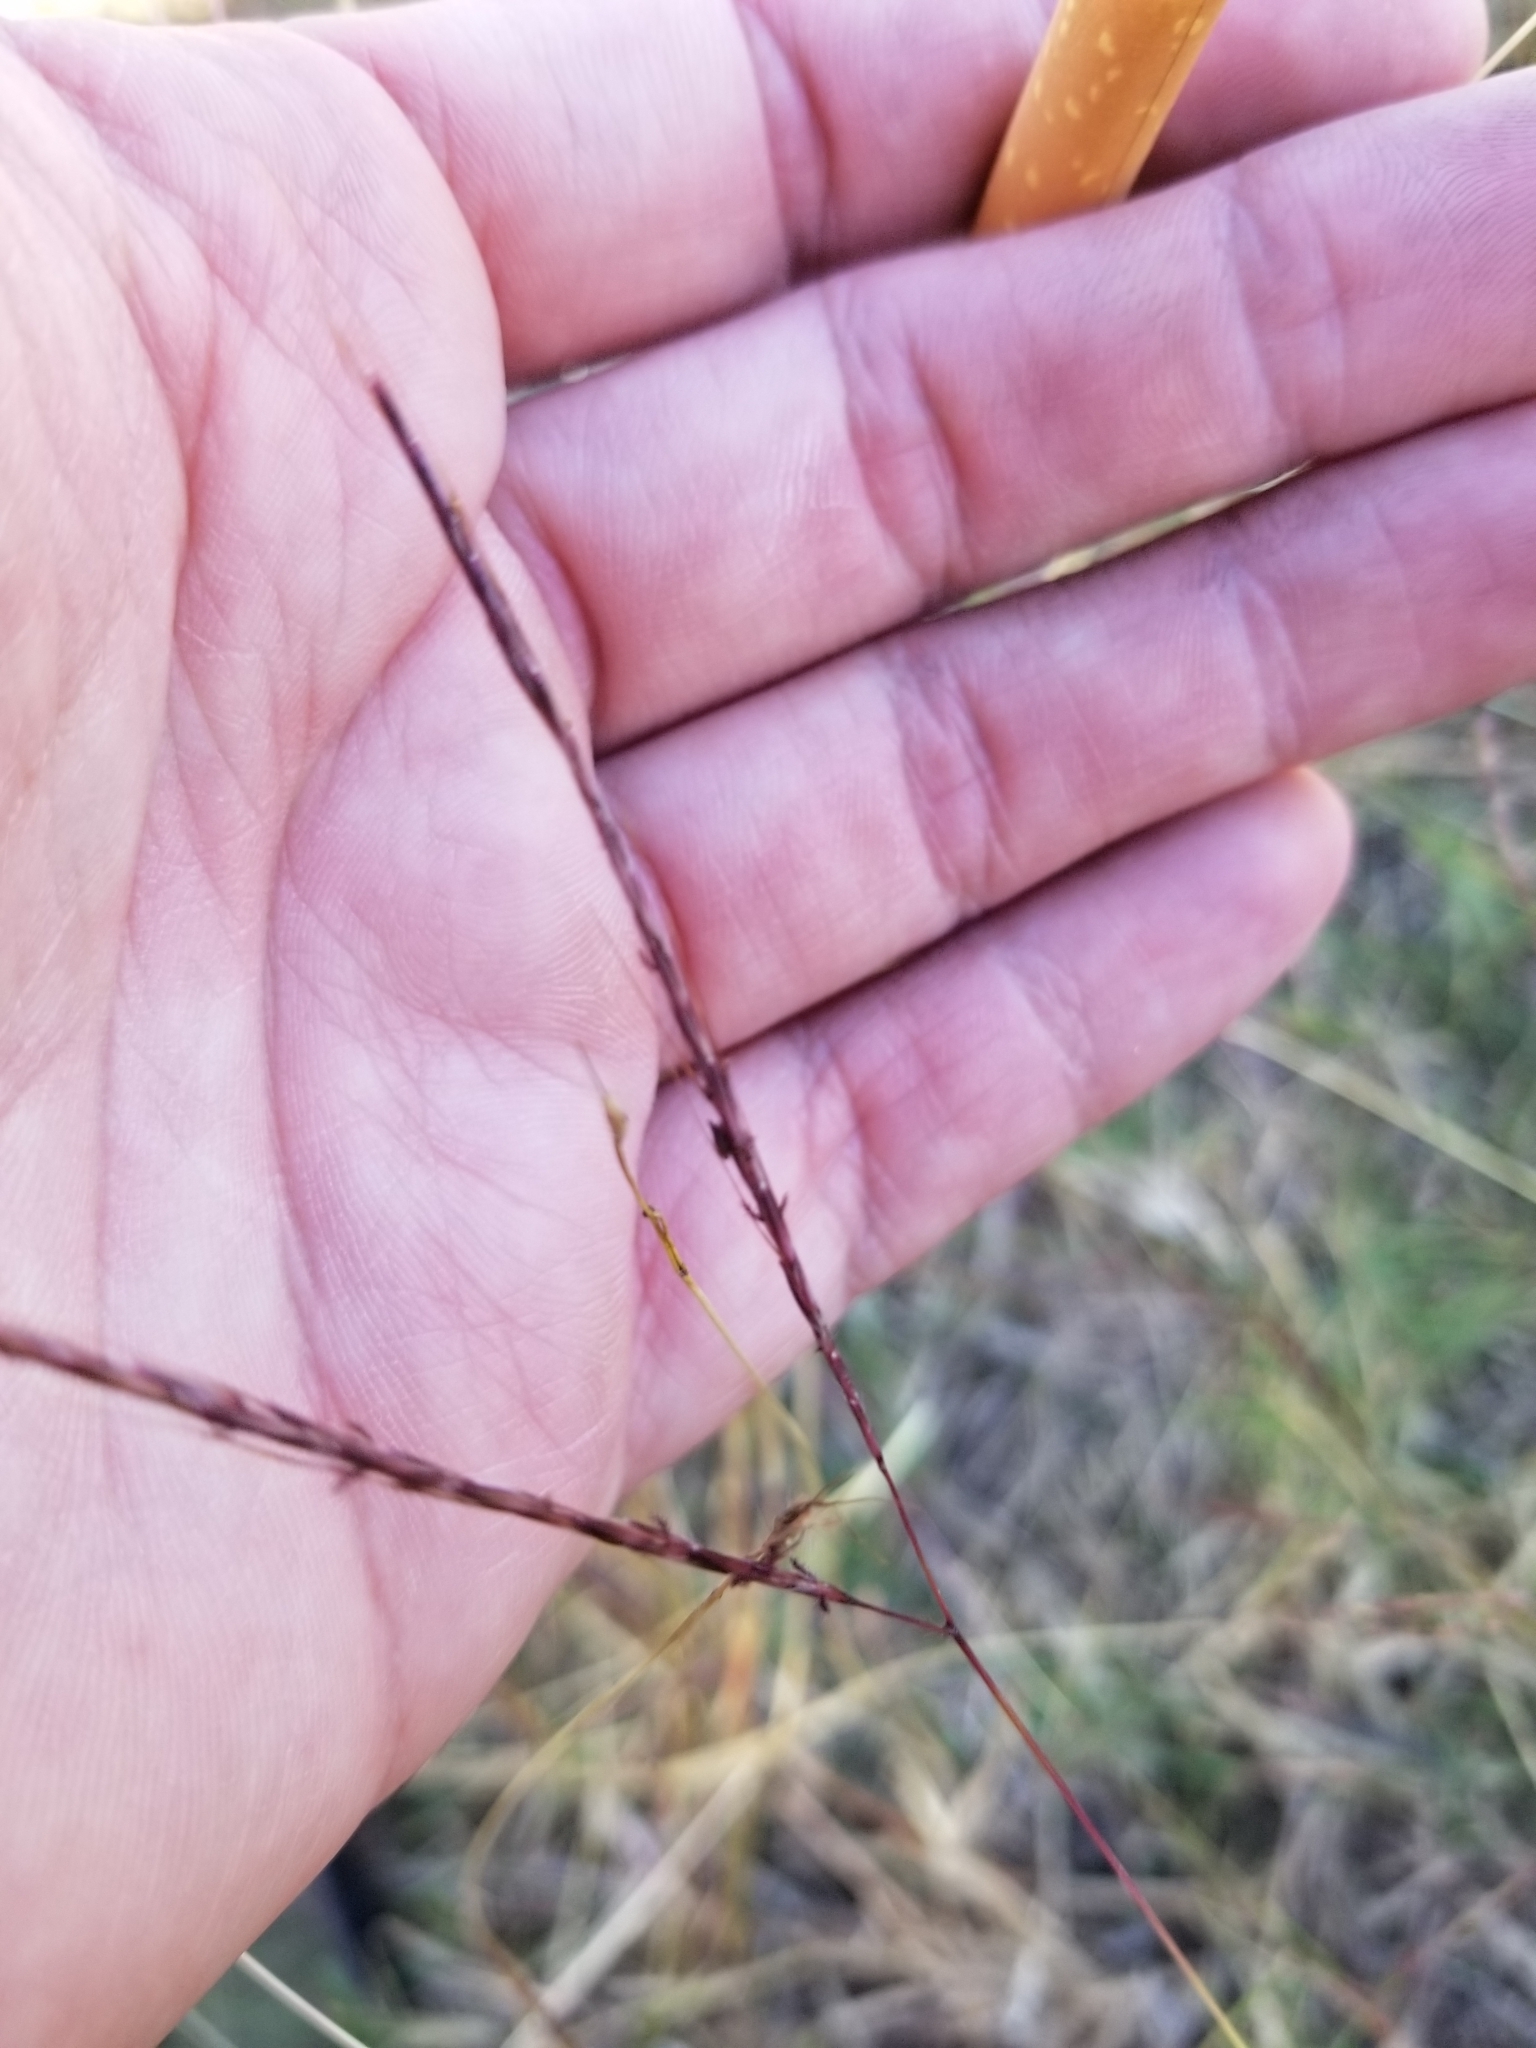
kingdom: Plantae
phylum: Tracheophyta
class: Liliopsida
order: Poales
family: Poaceae
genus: Bothriochloa
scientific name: Bothriochloa ischaemum
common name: Yellow bluestem
